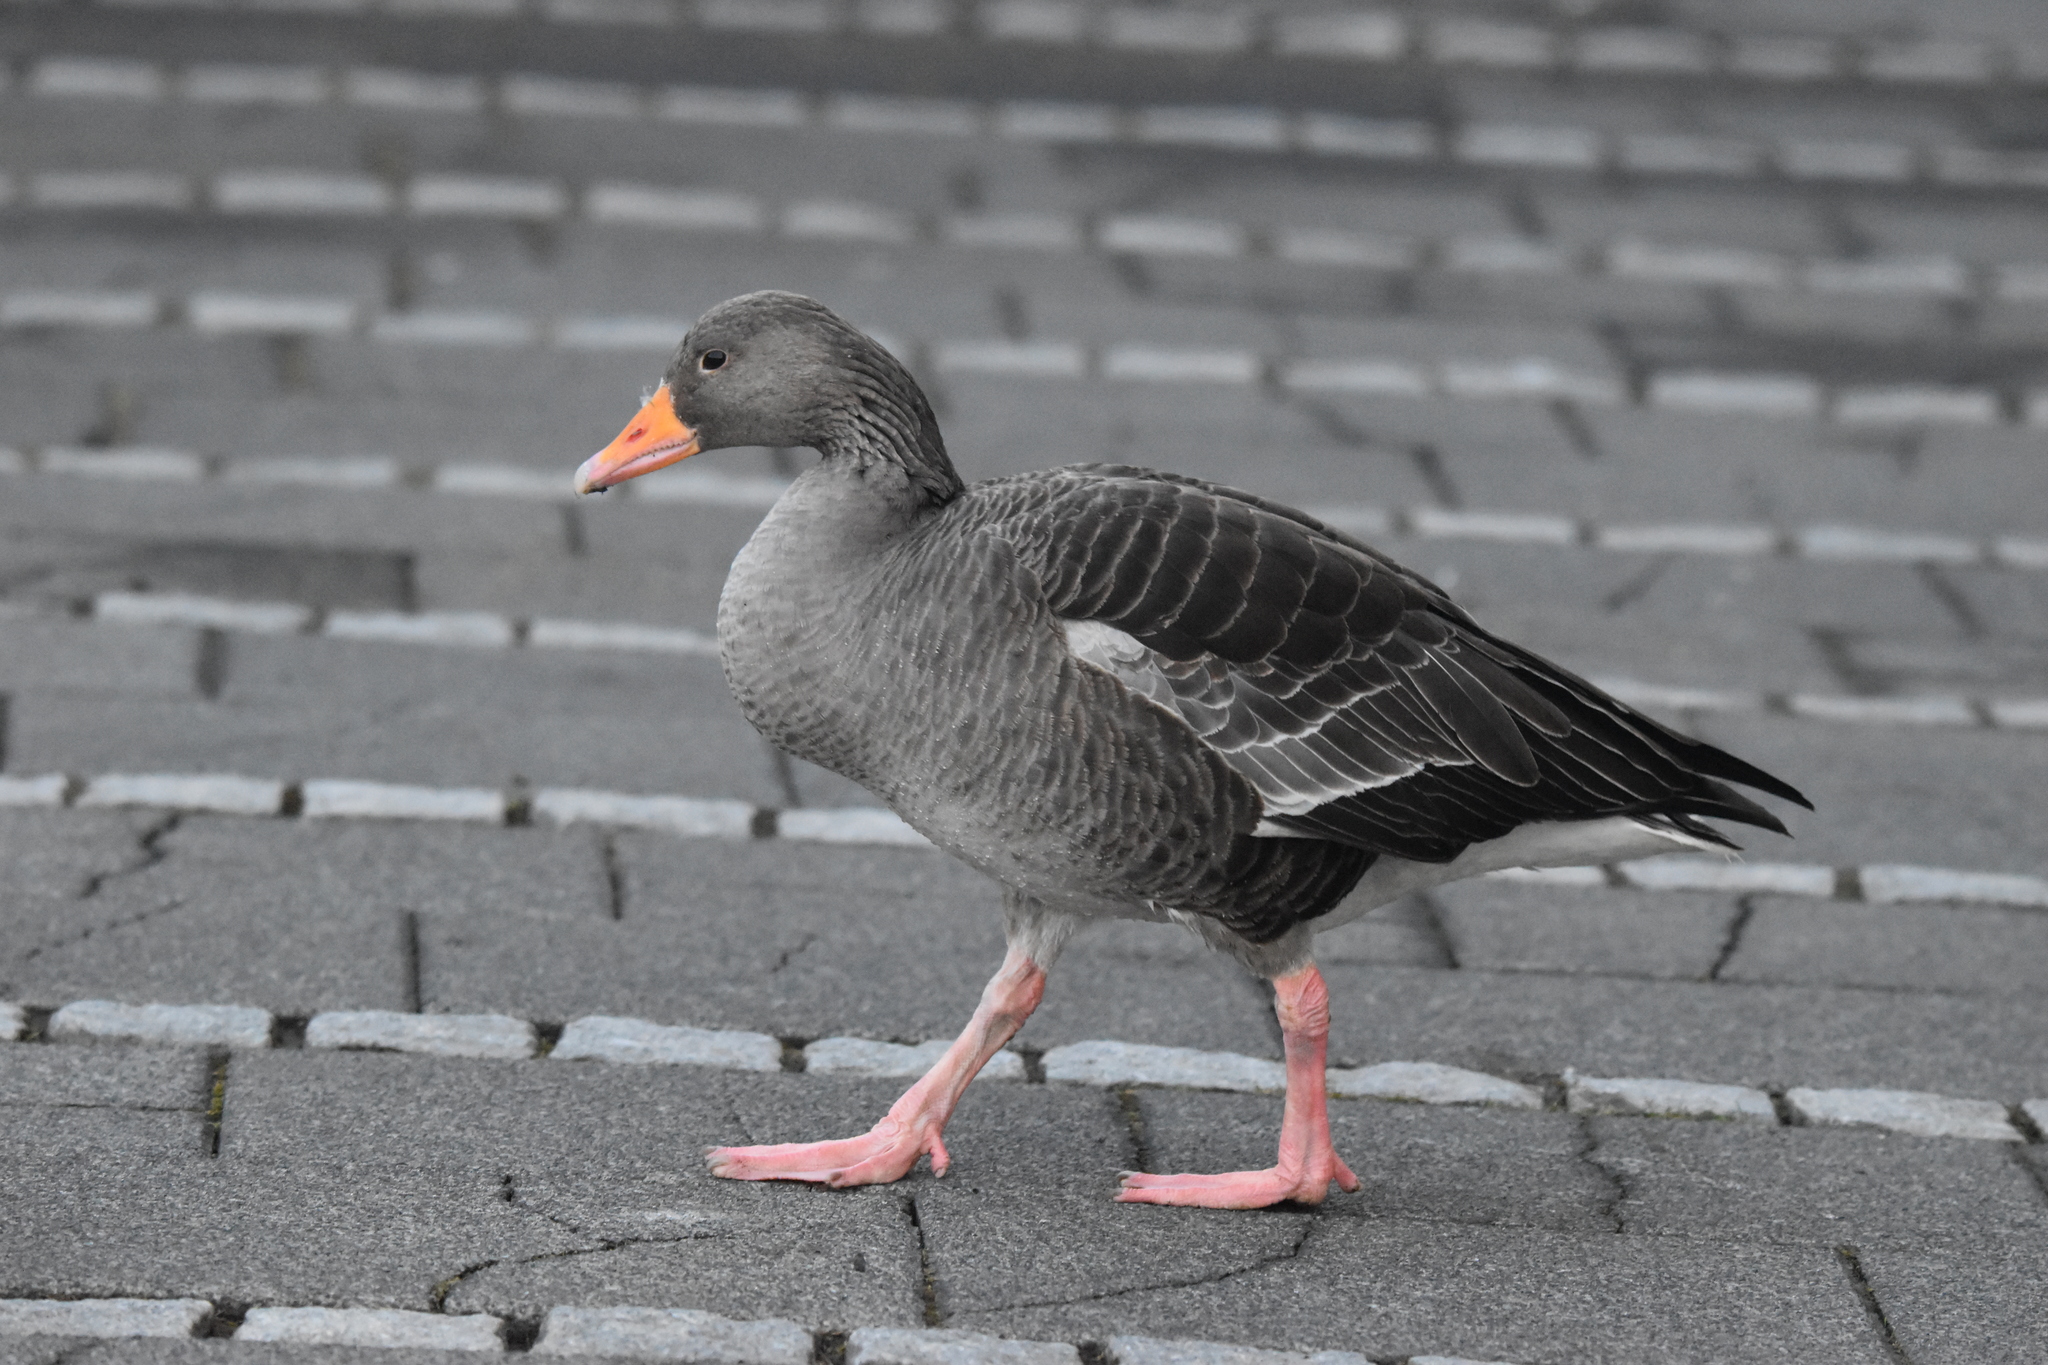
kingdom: Animalia
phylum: Chordata
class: Aves
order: Anseriformes
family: Anatidae
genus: Anser
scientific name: Anser anser
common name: Greylag goose
